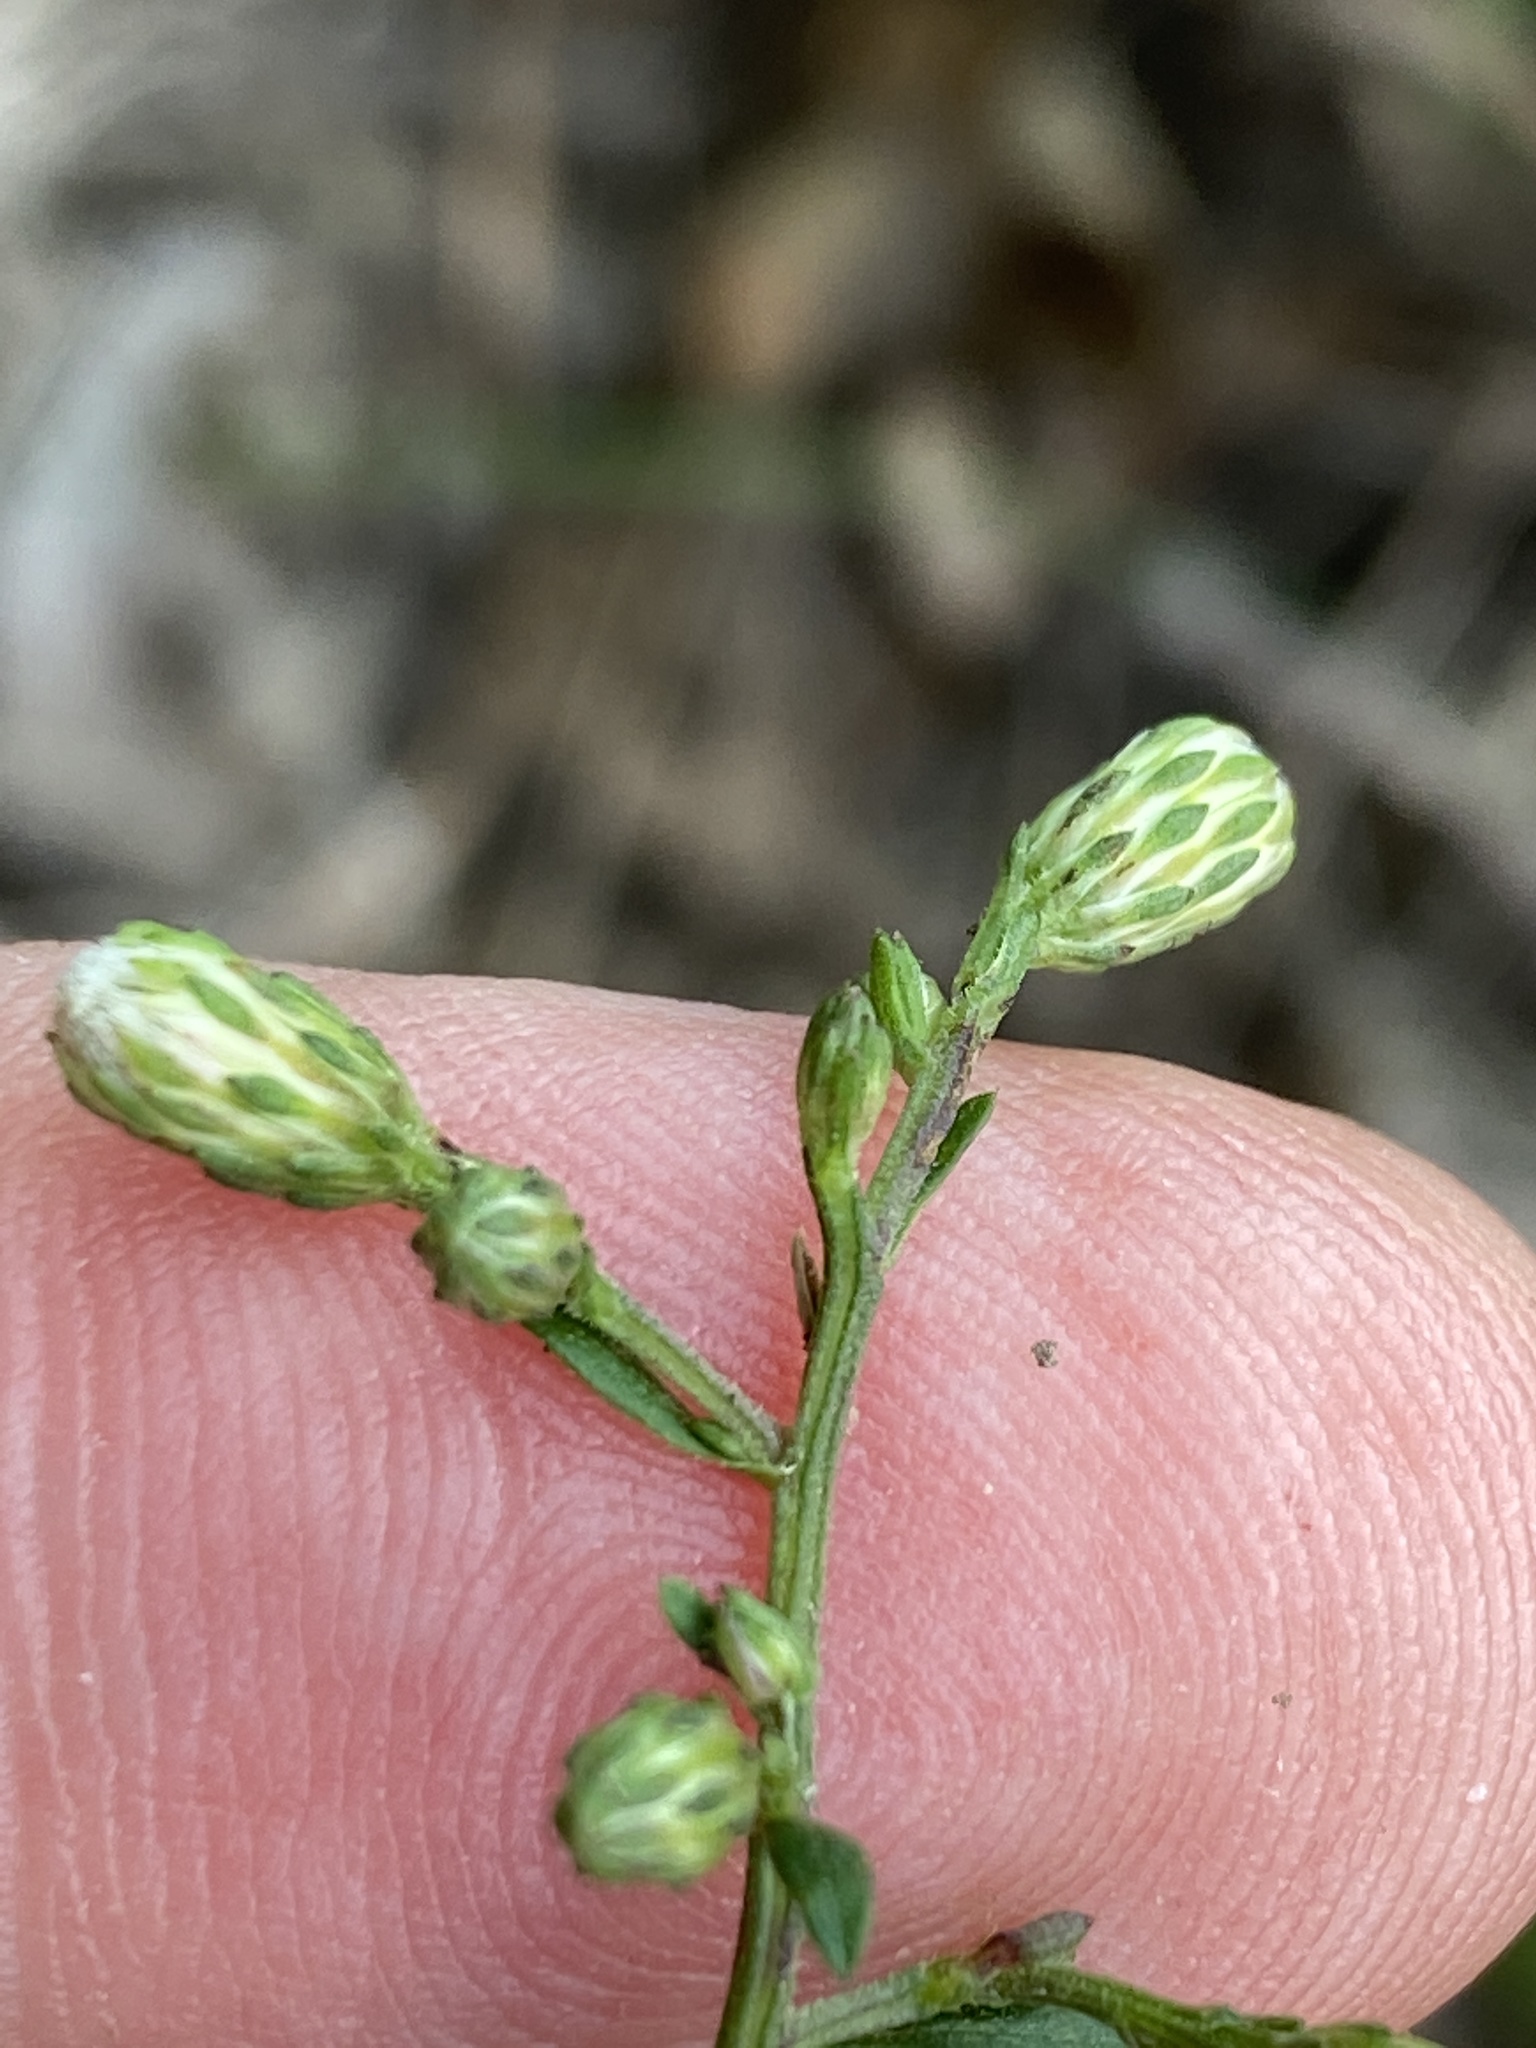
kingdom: Plantae
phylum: Tracheophyta
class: Magnoliopsida
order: Asterales
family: Asteraceae
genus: Symphyotrichum
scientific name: Symphyotrichum lanceolatum
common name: Panicled aster
